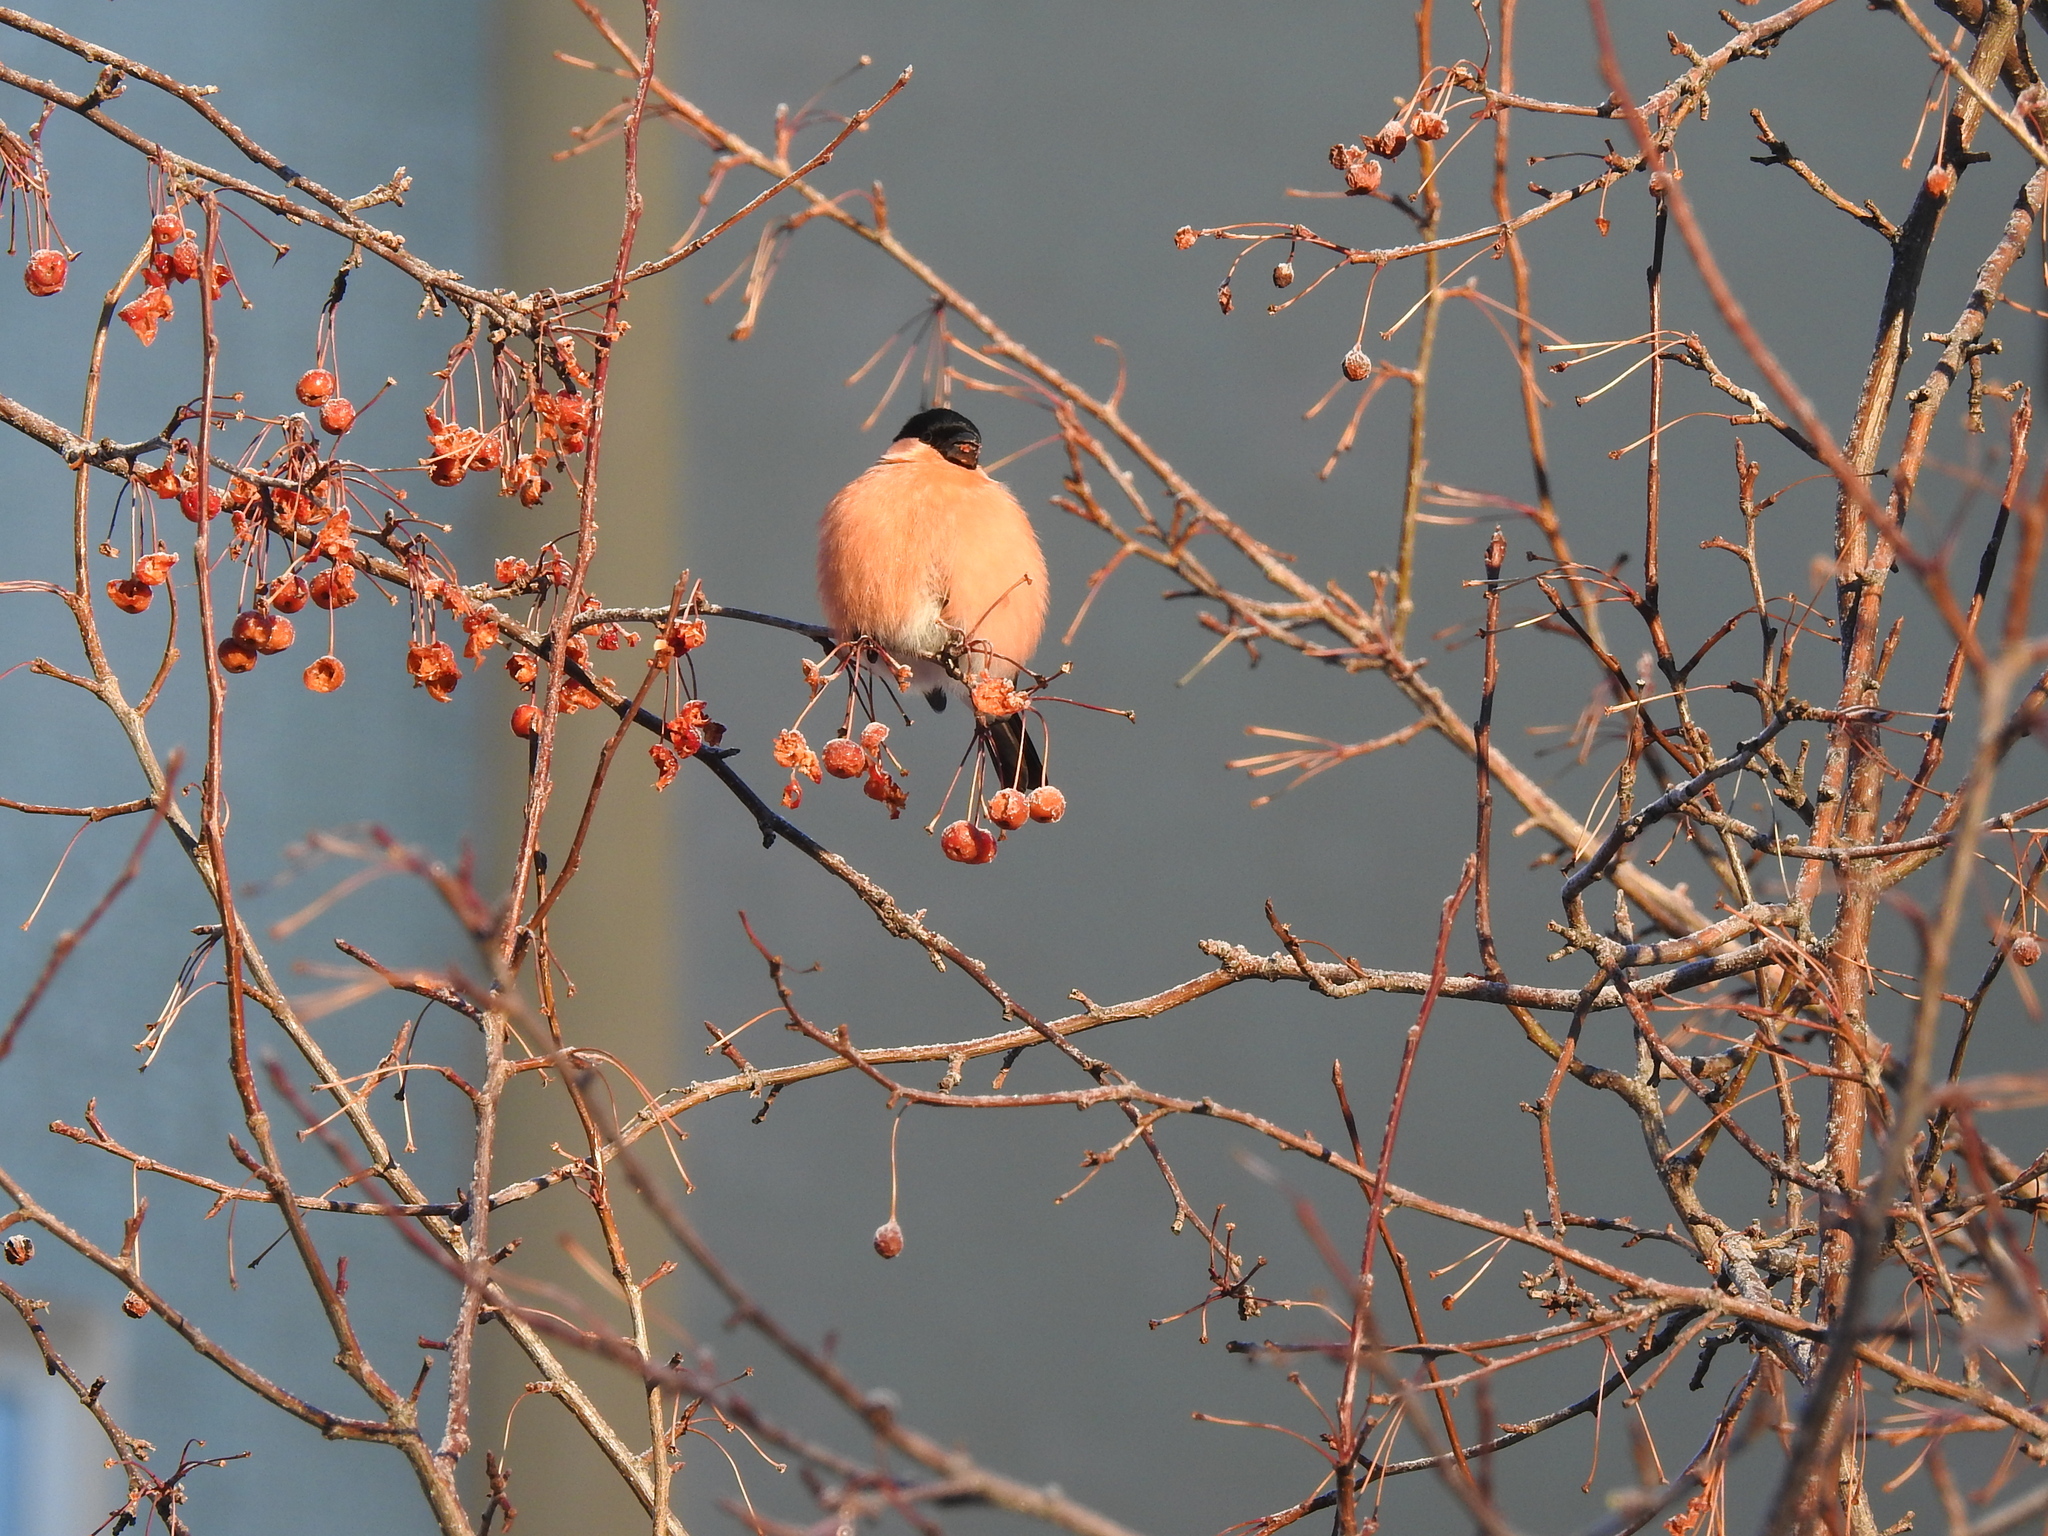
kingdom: Animalia
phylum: Chordata
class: Aves
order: Passeriformes
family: Fringillidae
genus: Pyrrhula
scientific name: Pyrrhula pyrrhula
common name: Eurasian bullfinch
